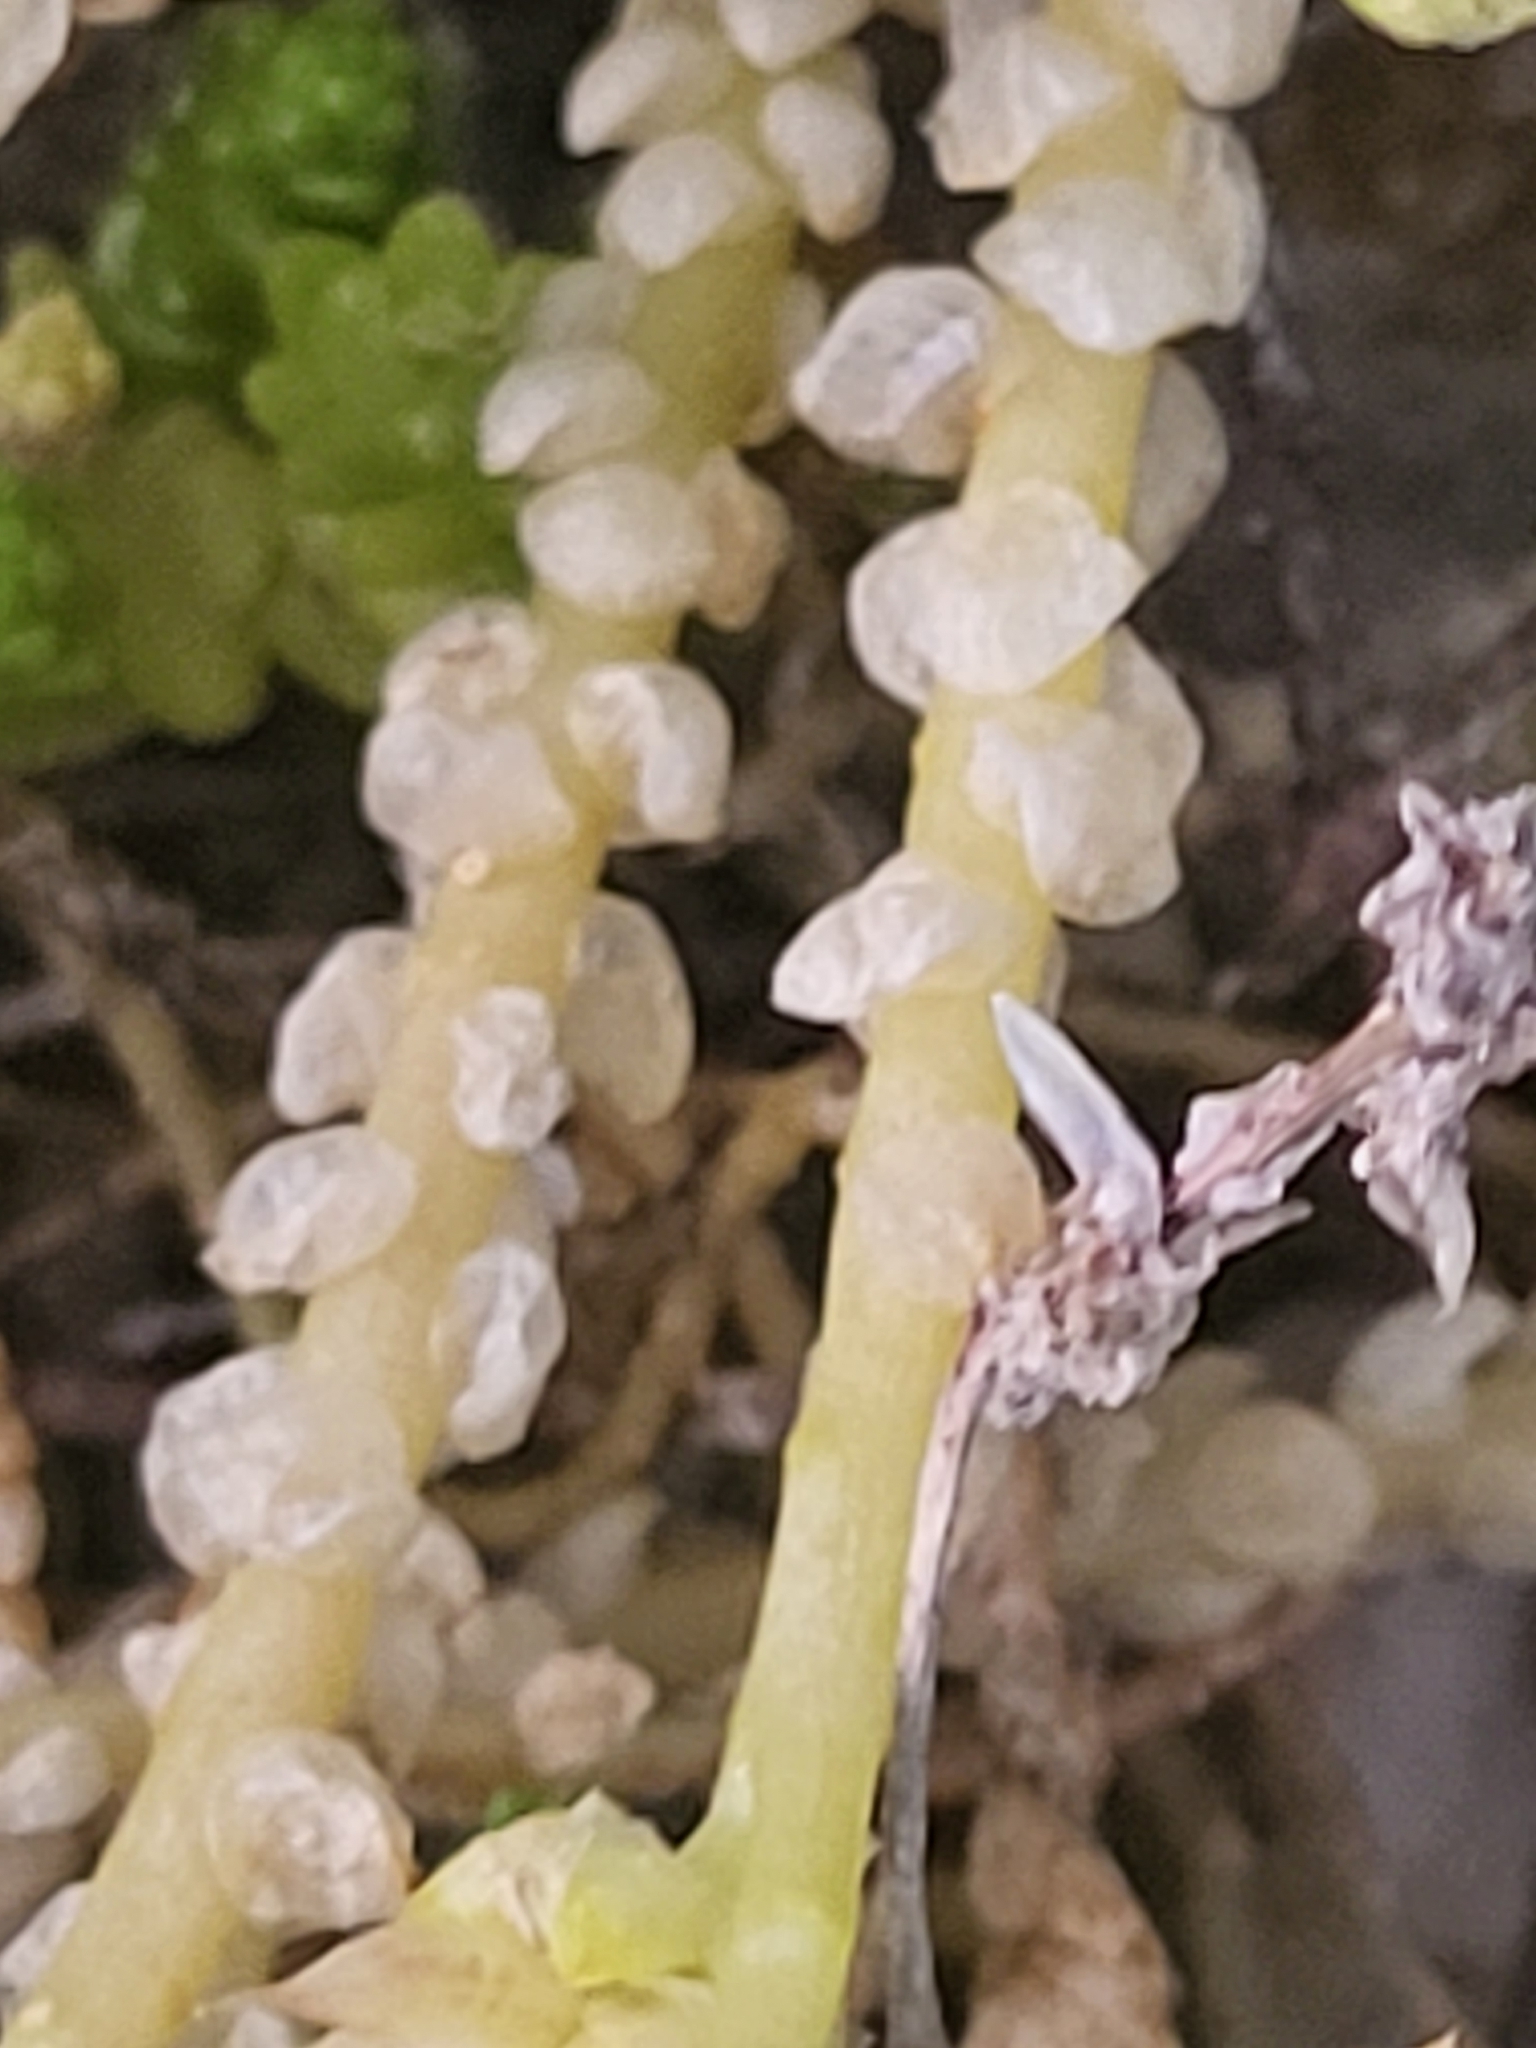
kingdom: Plantae
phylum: Tracheophyta
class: Magnoliopsida
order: Saxifragales
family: Crassulaceae
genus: Sedum
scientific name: Sedum acre
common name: Biting stonecrop
